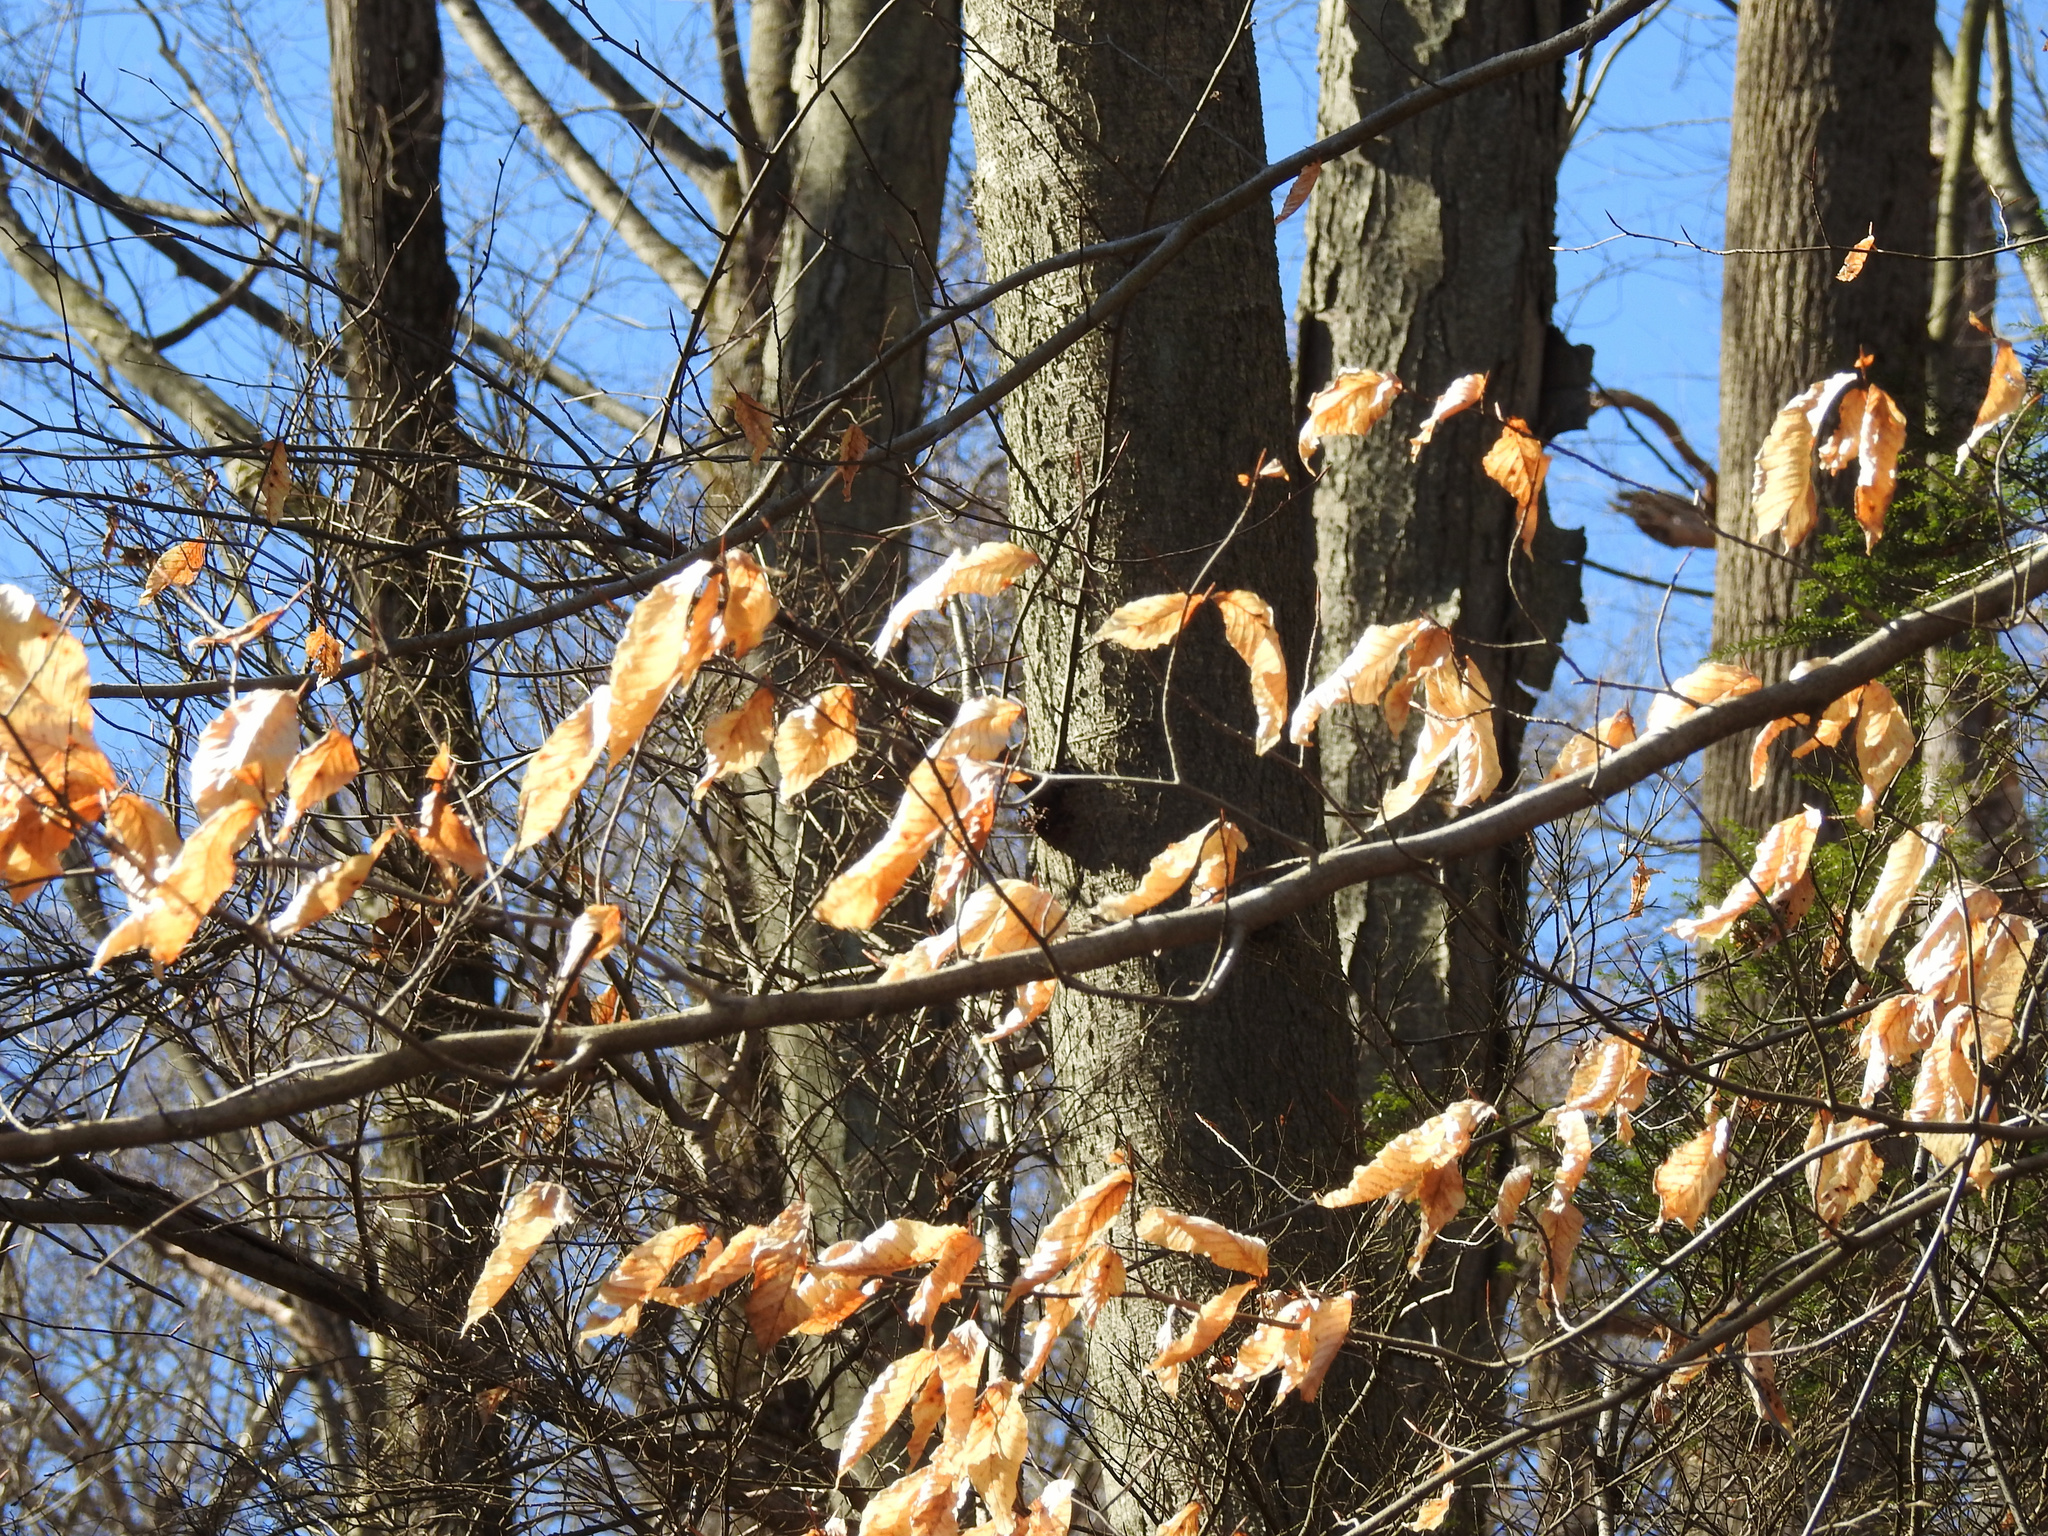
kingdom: Plantae
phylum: Tracheophyta
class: Magnoliopsida
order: Fagales
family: Fagaceae
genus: Fagus
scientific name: Fagus grandifolia
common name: American beech
